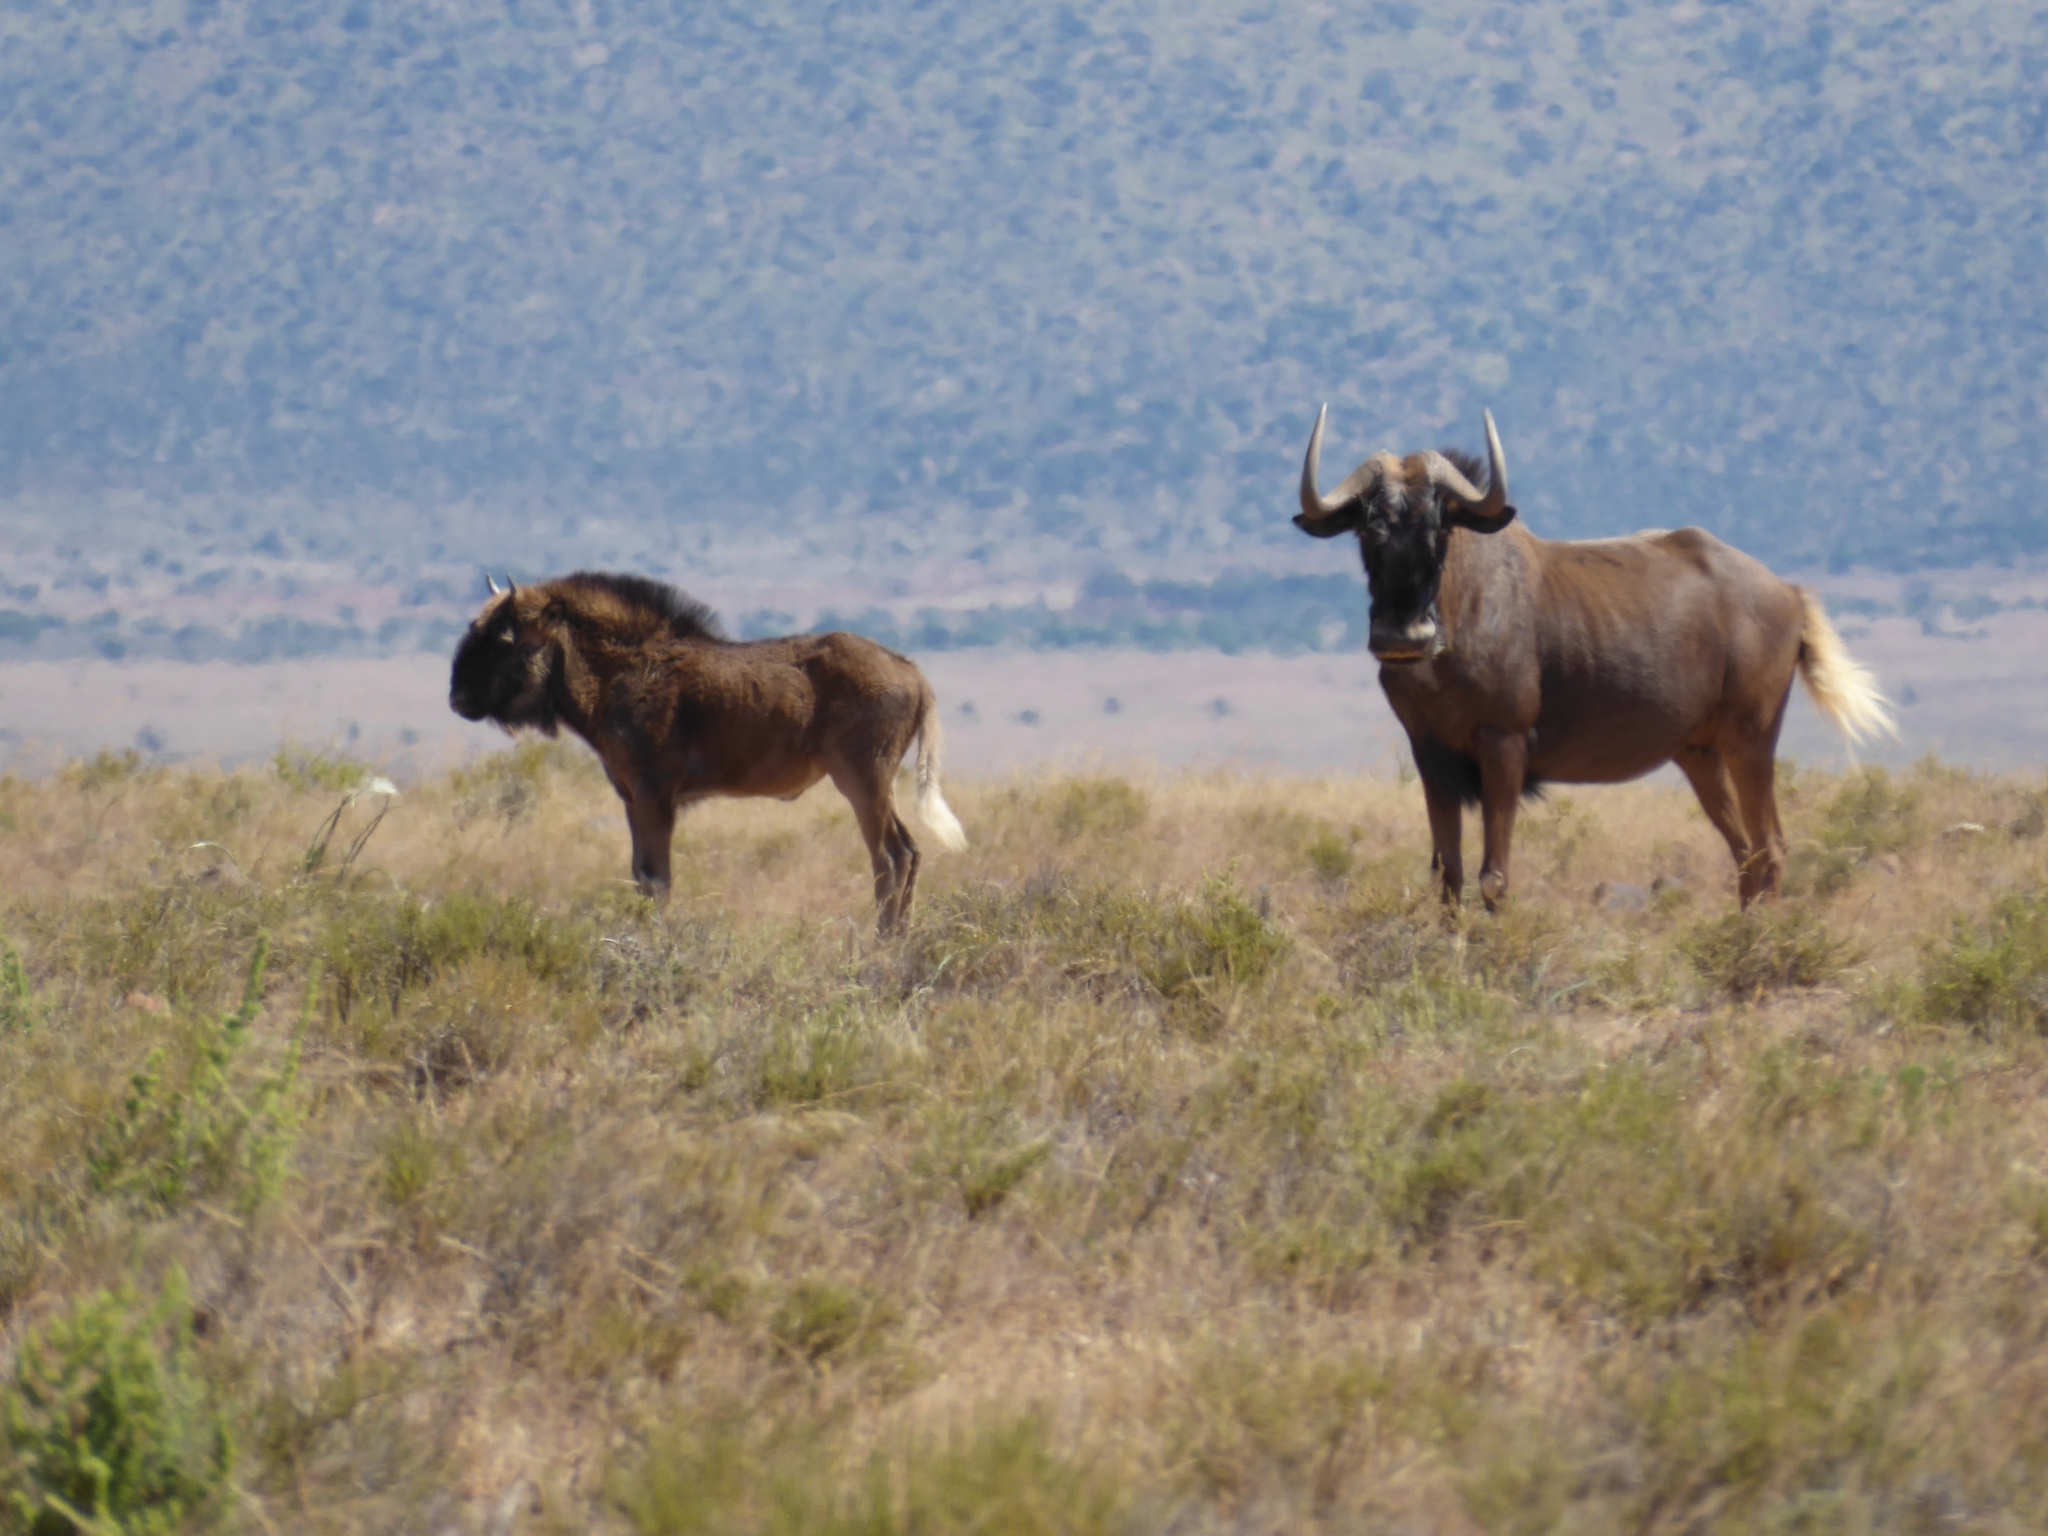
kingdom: Animalia
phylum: Chordata
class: Mammalia
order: Artiodactyla
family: Bovidae
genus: Connochaetes
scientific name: Connochaetes gnou
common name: Black wildebeest
